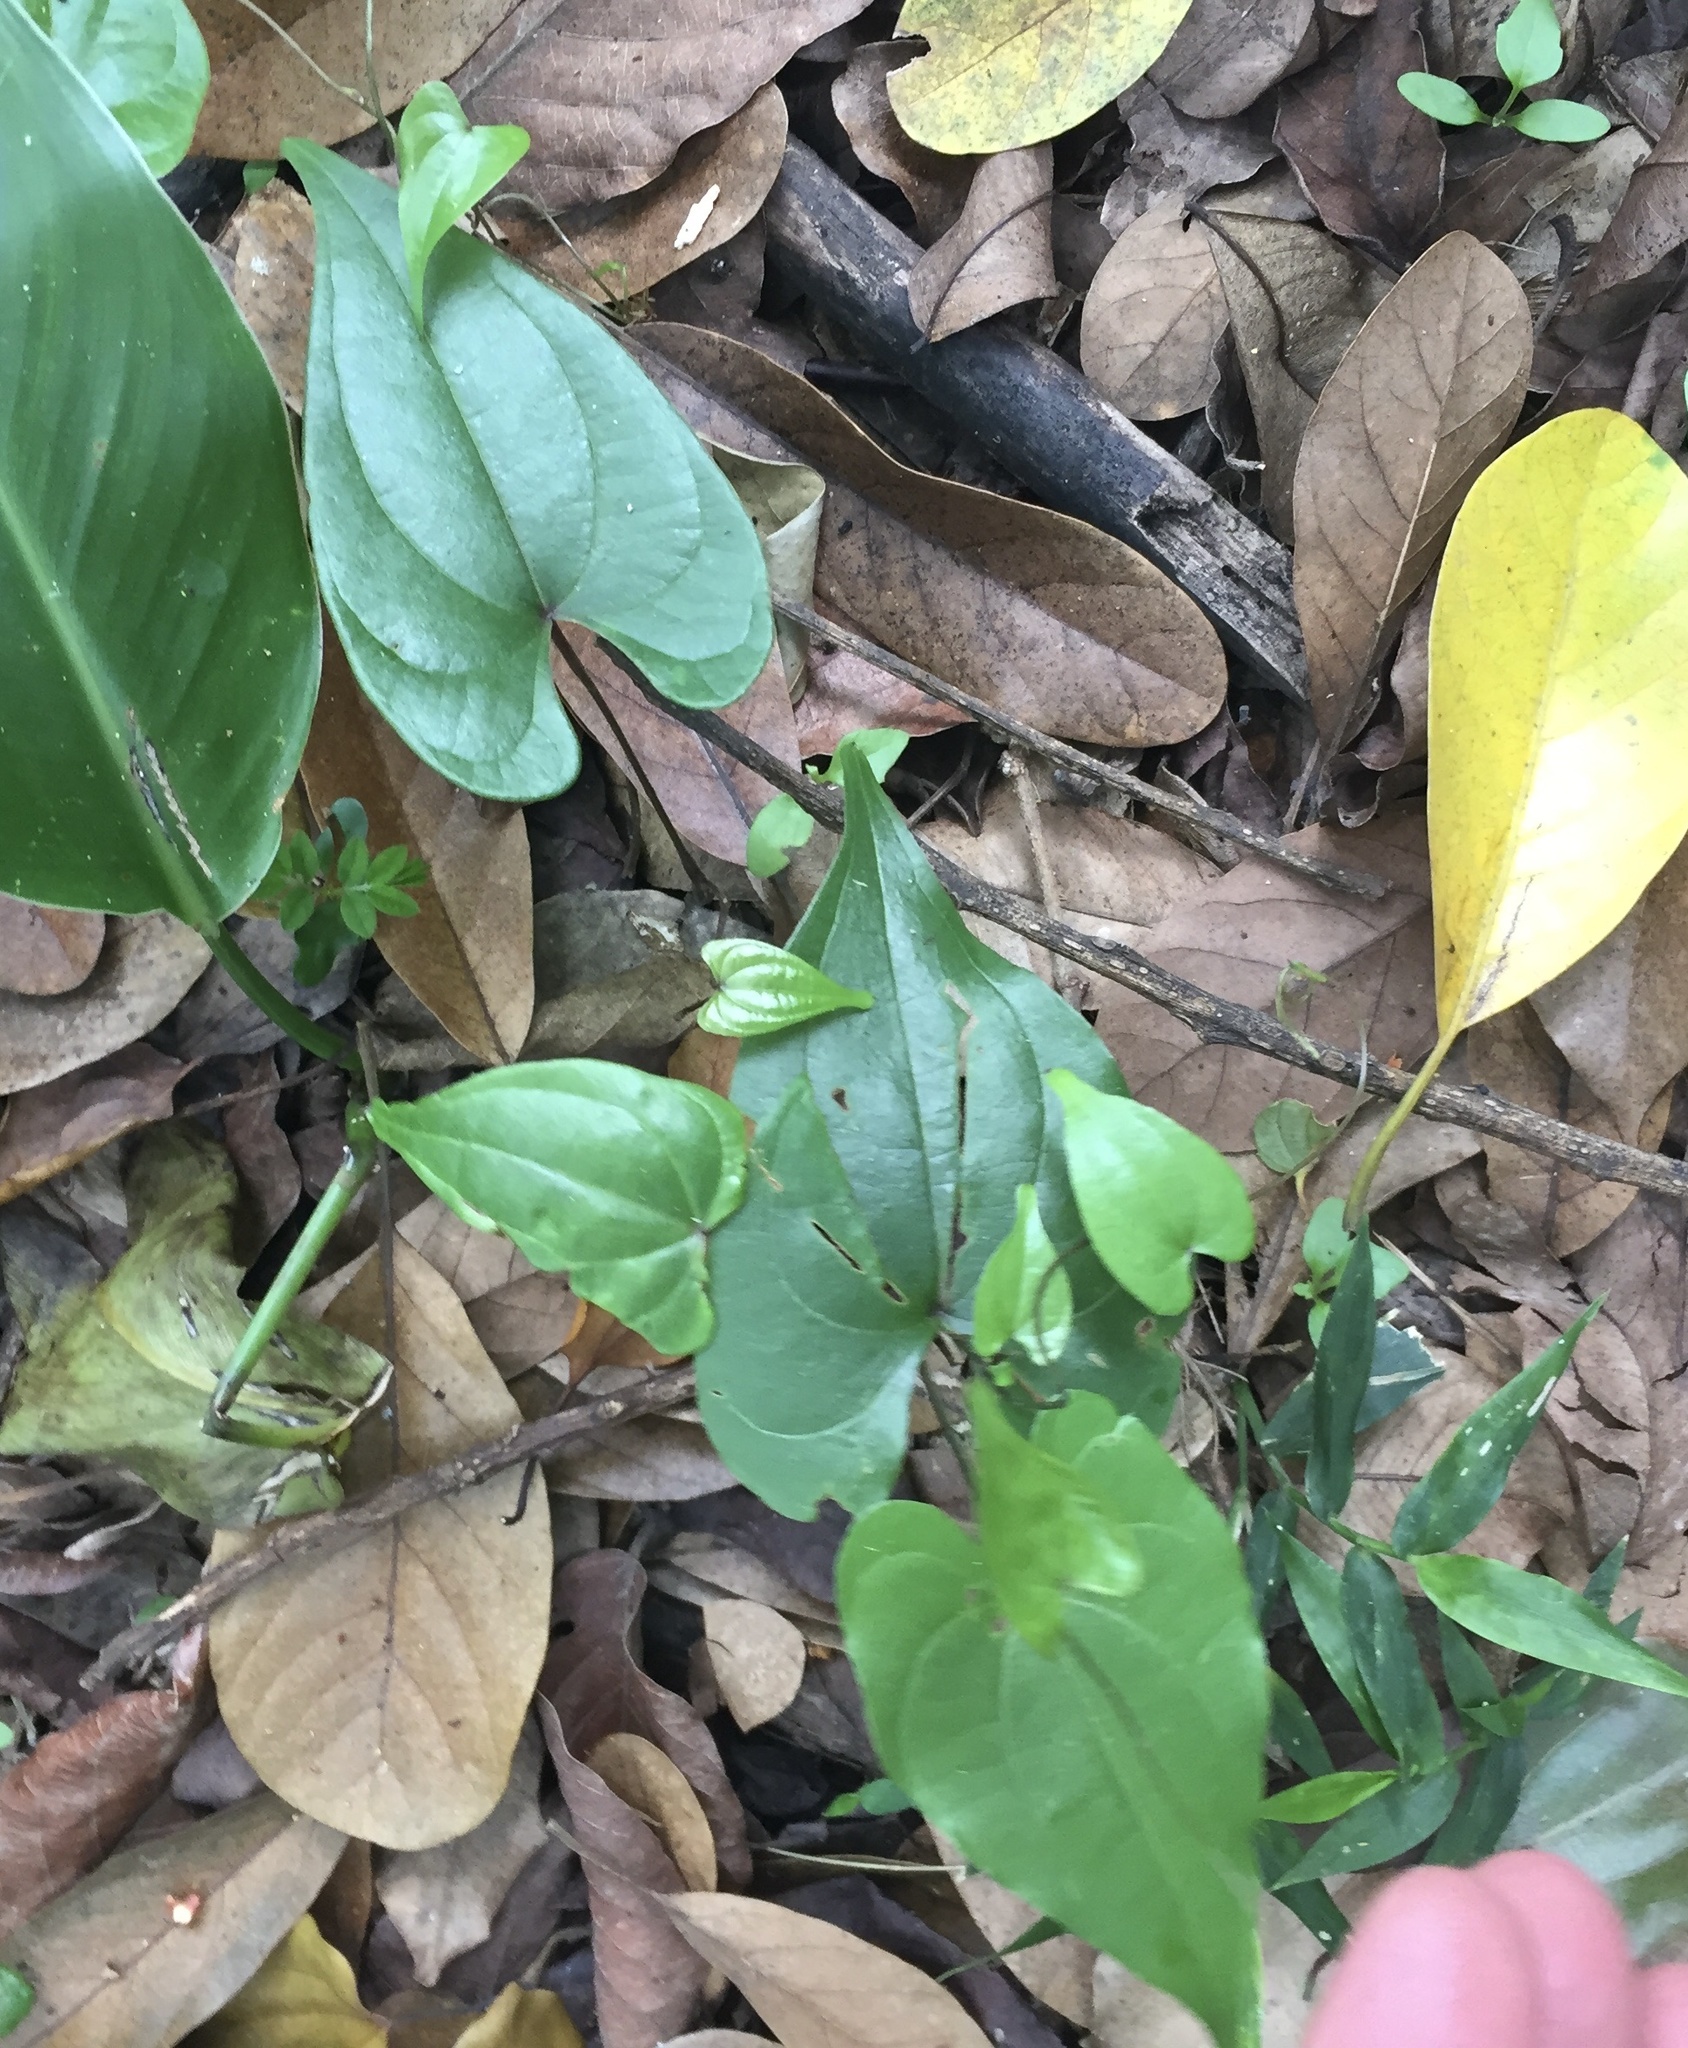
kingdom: Plantae
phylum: Tracheophyta
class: Liliopsida
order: Dioscoreales
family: Dioscoreaceae
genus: Dioscorea
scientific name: Dioscorea cotinifolia
